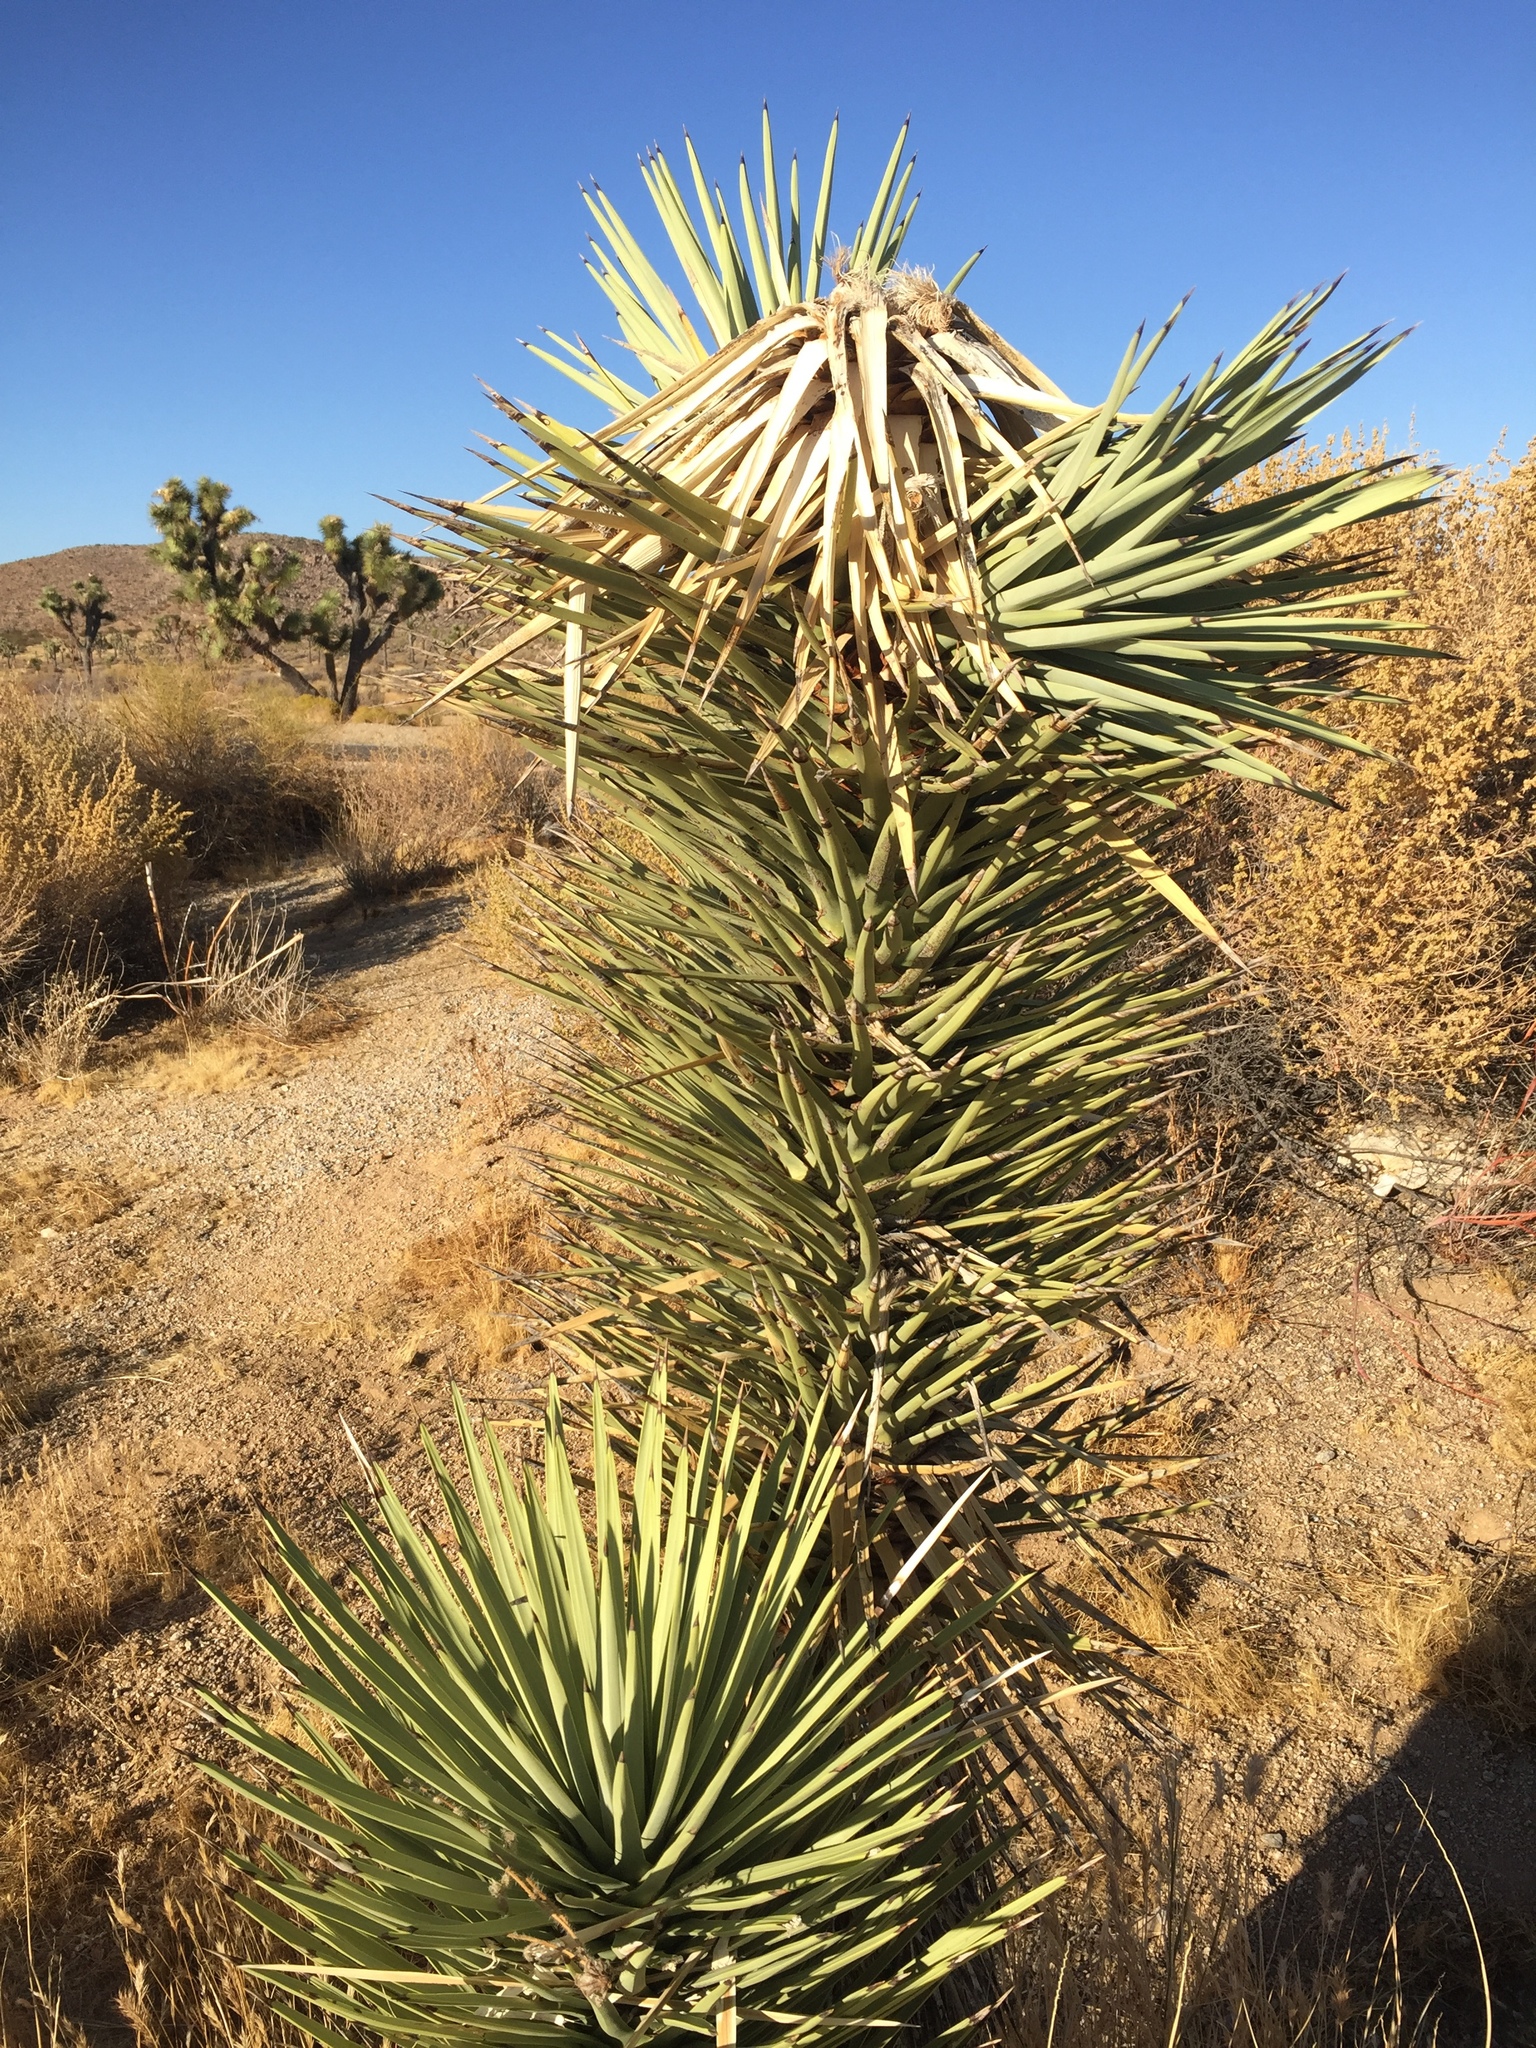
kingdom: Plantae
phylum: Tracheophyta
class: Liliopsida
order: Asparagales
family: Asparagaceae
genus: Yucca
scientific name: Yucca brevifolia
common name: Joshua tree
